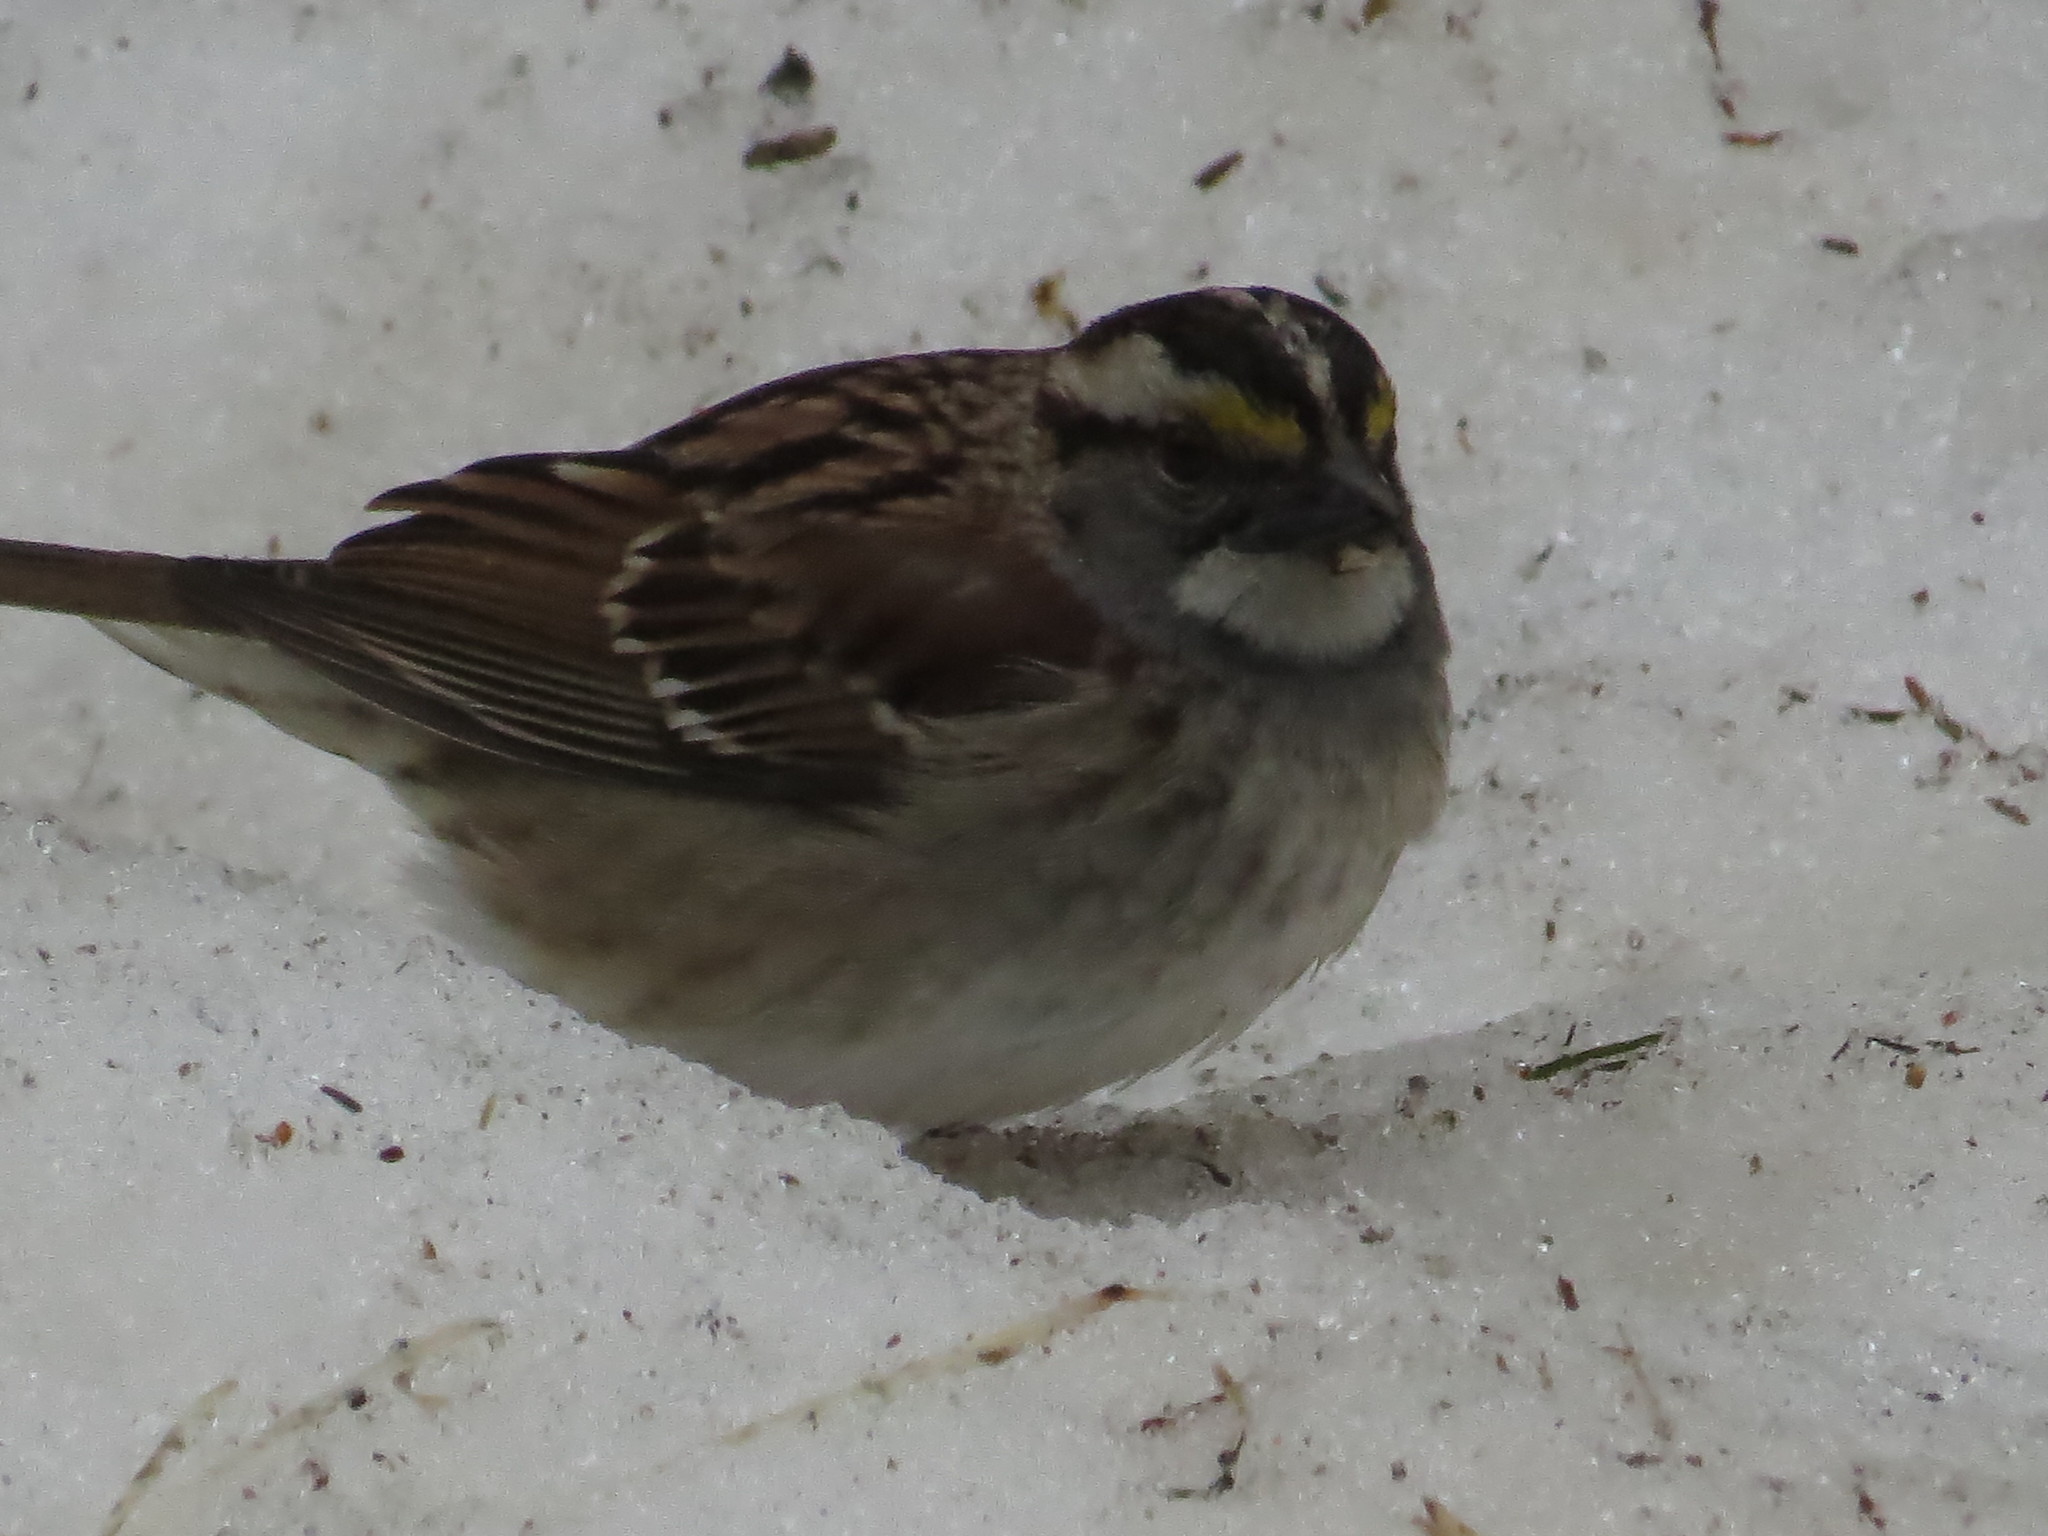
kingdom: Animalia
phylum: Chordata
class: Aves
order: Passeriformes
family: Passerellidae
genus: Zonotrichia
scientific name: Zonotrichia albicollis
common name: White-throated sparrow
